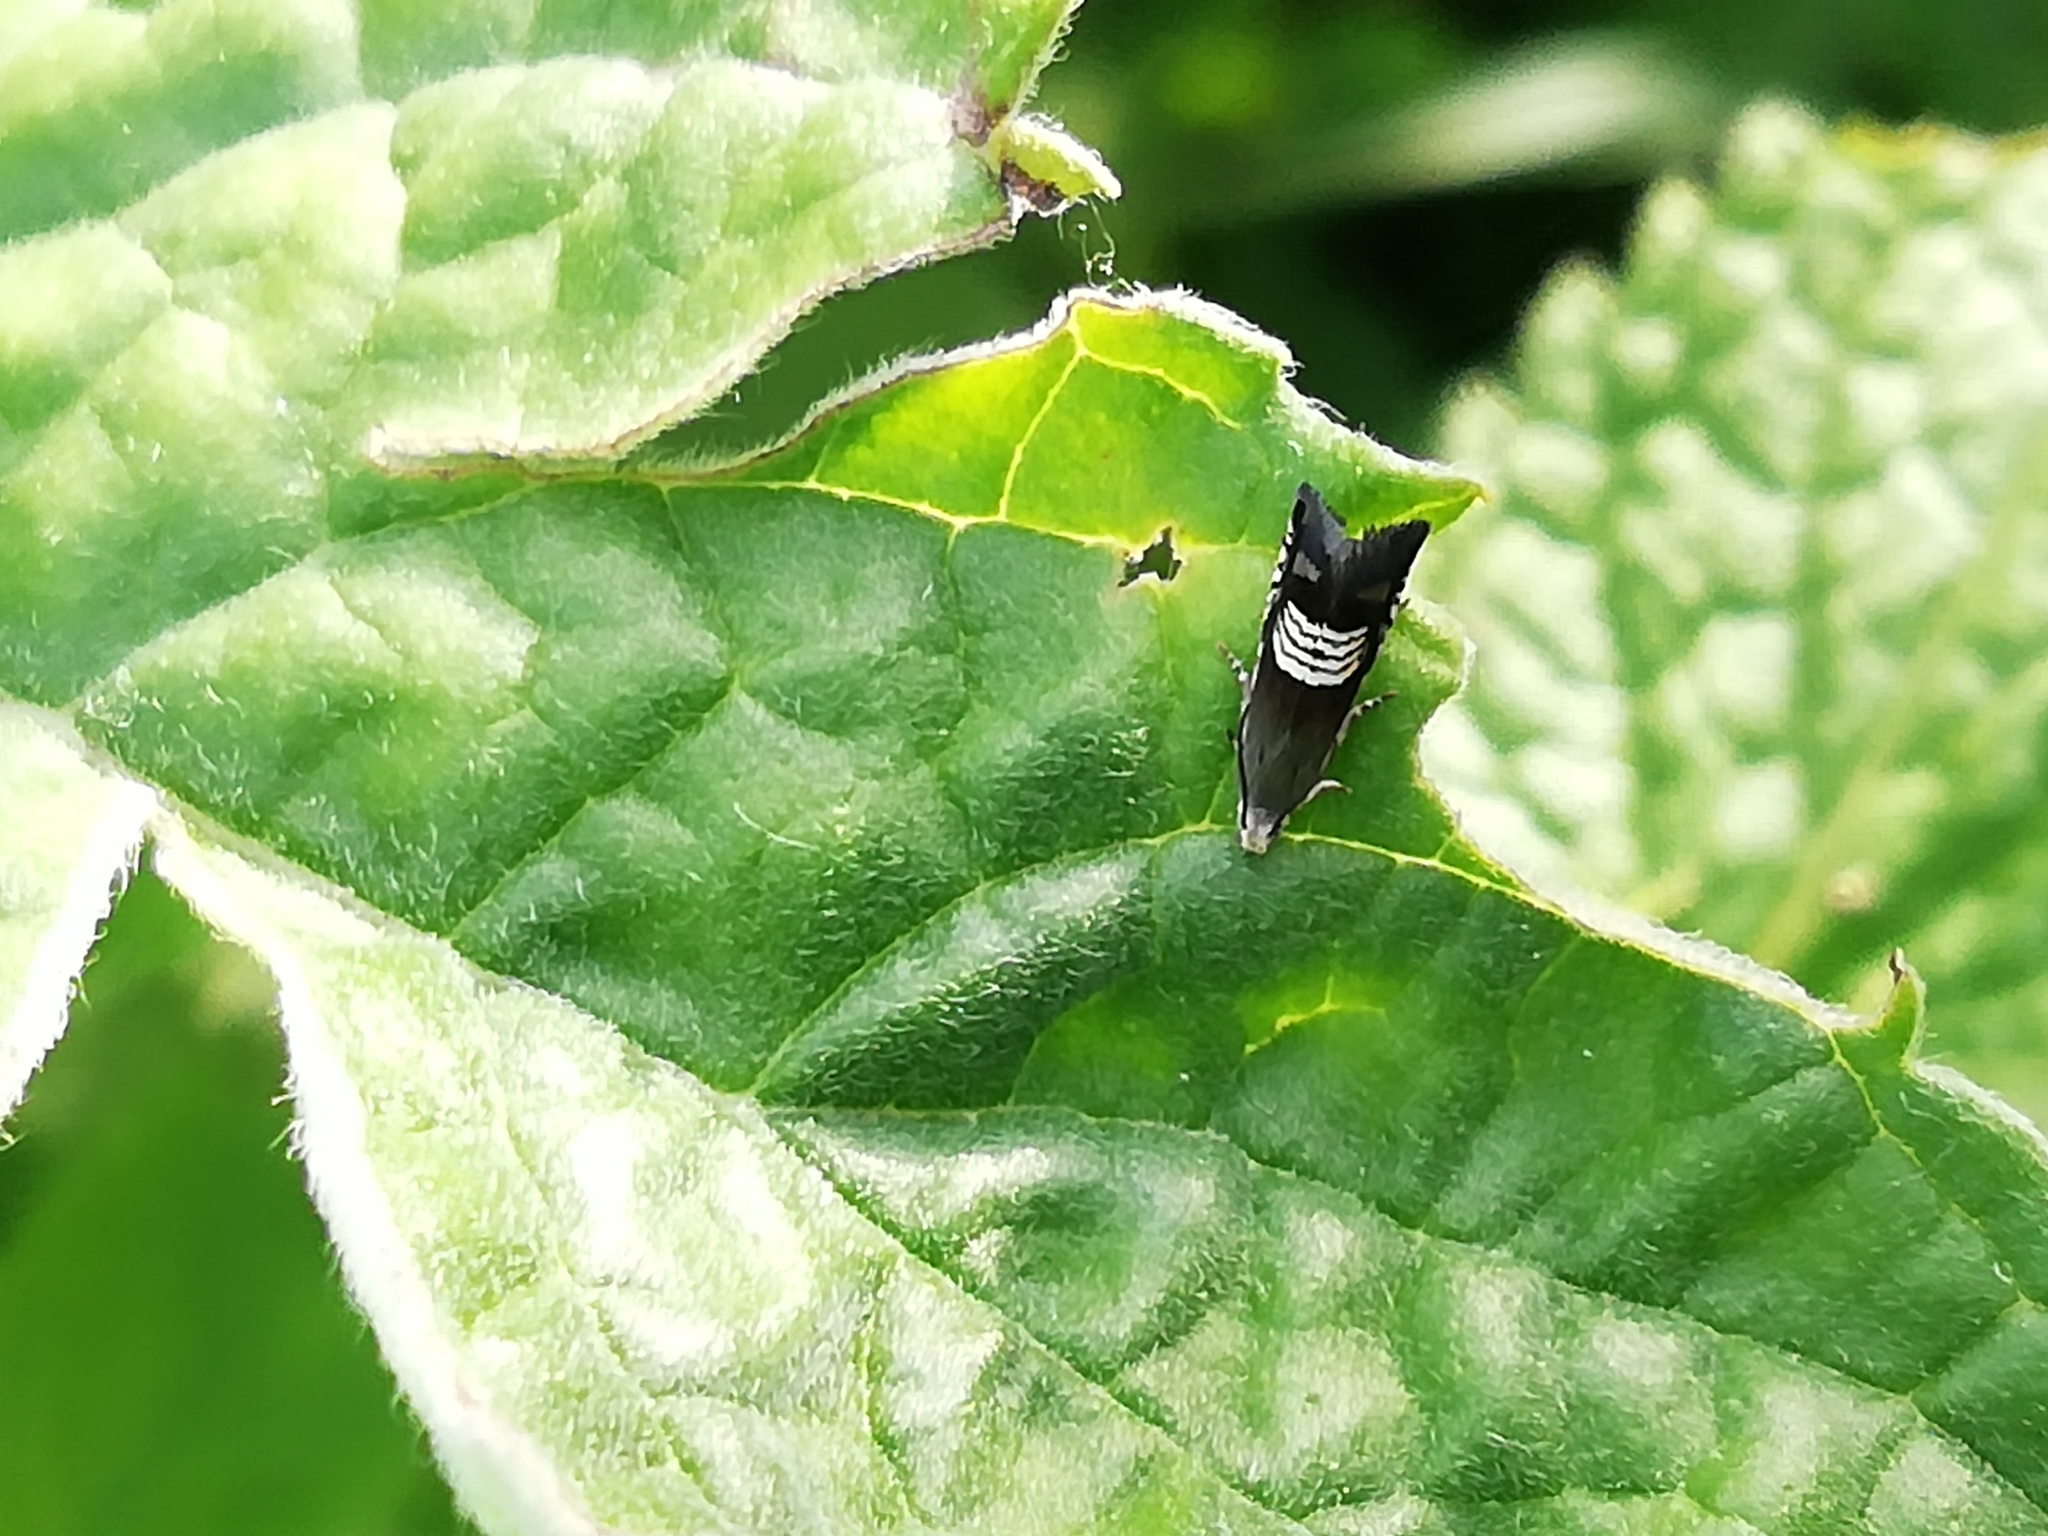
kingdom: Animalia
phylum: Arthropoda
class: Insecta
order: Lepidoptera
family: Tortricidae
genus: Grapholita
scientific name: Grapholita compositella
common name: Triple-stripe piercer
